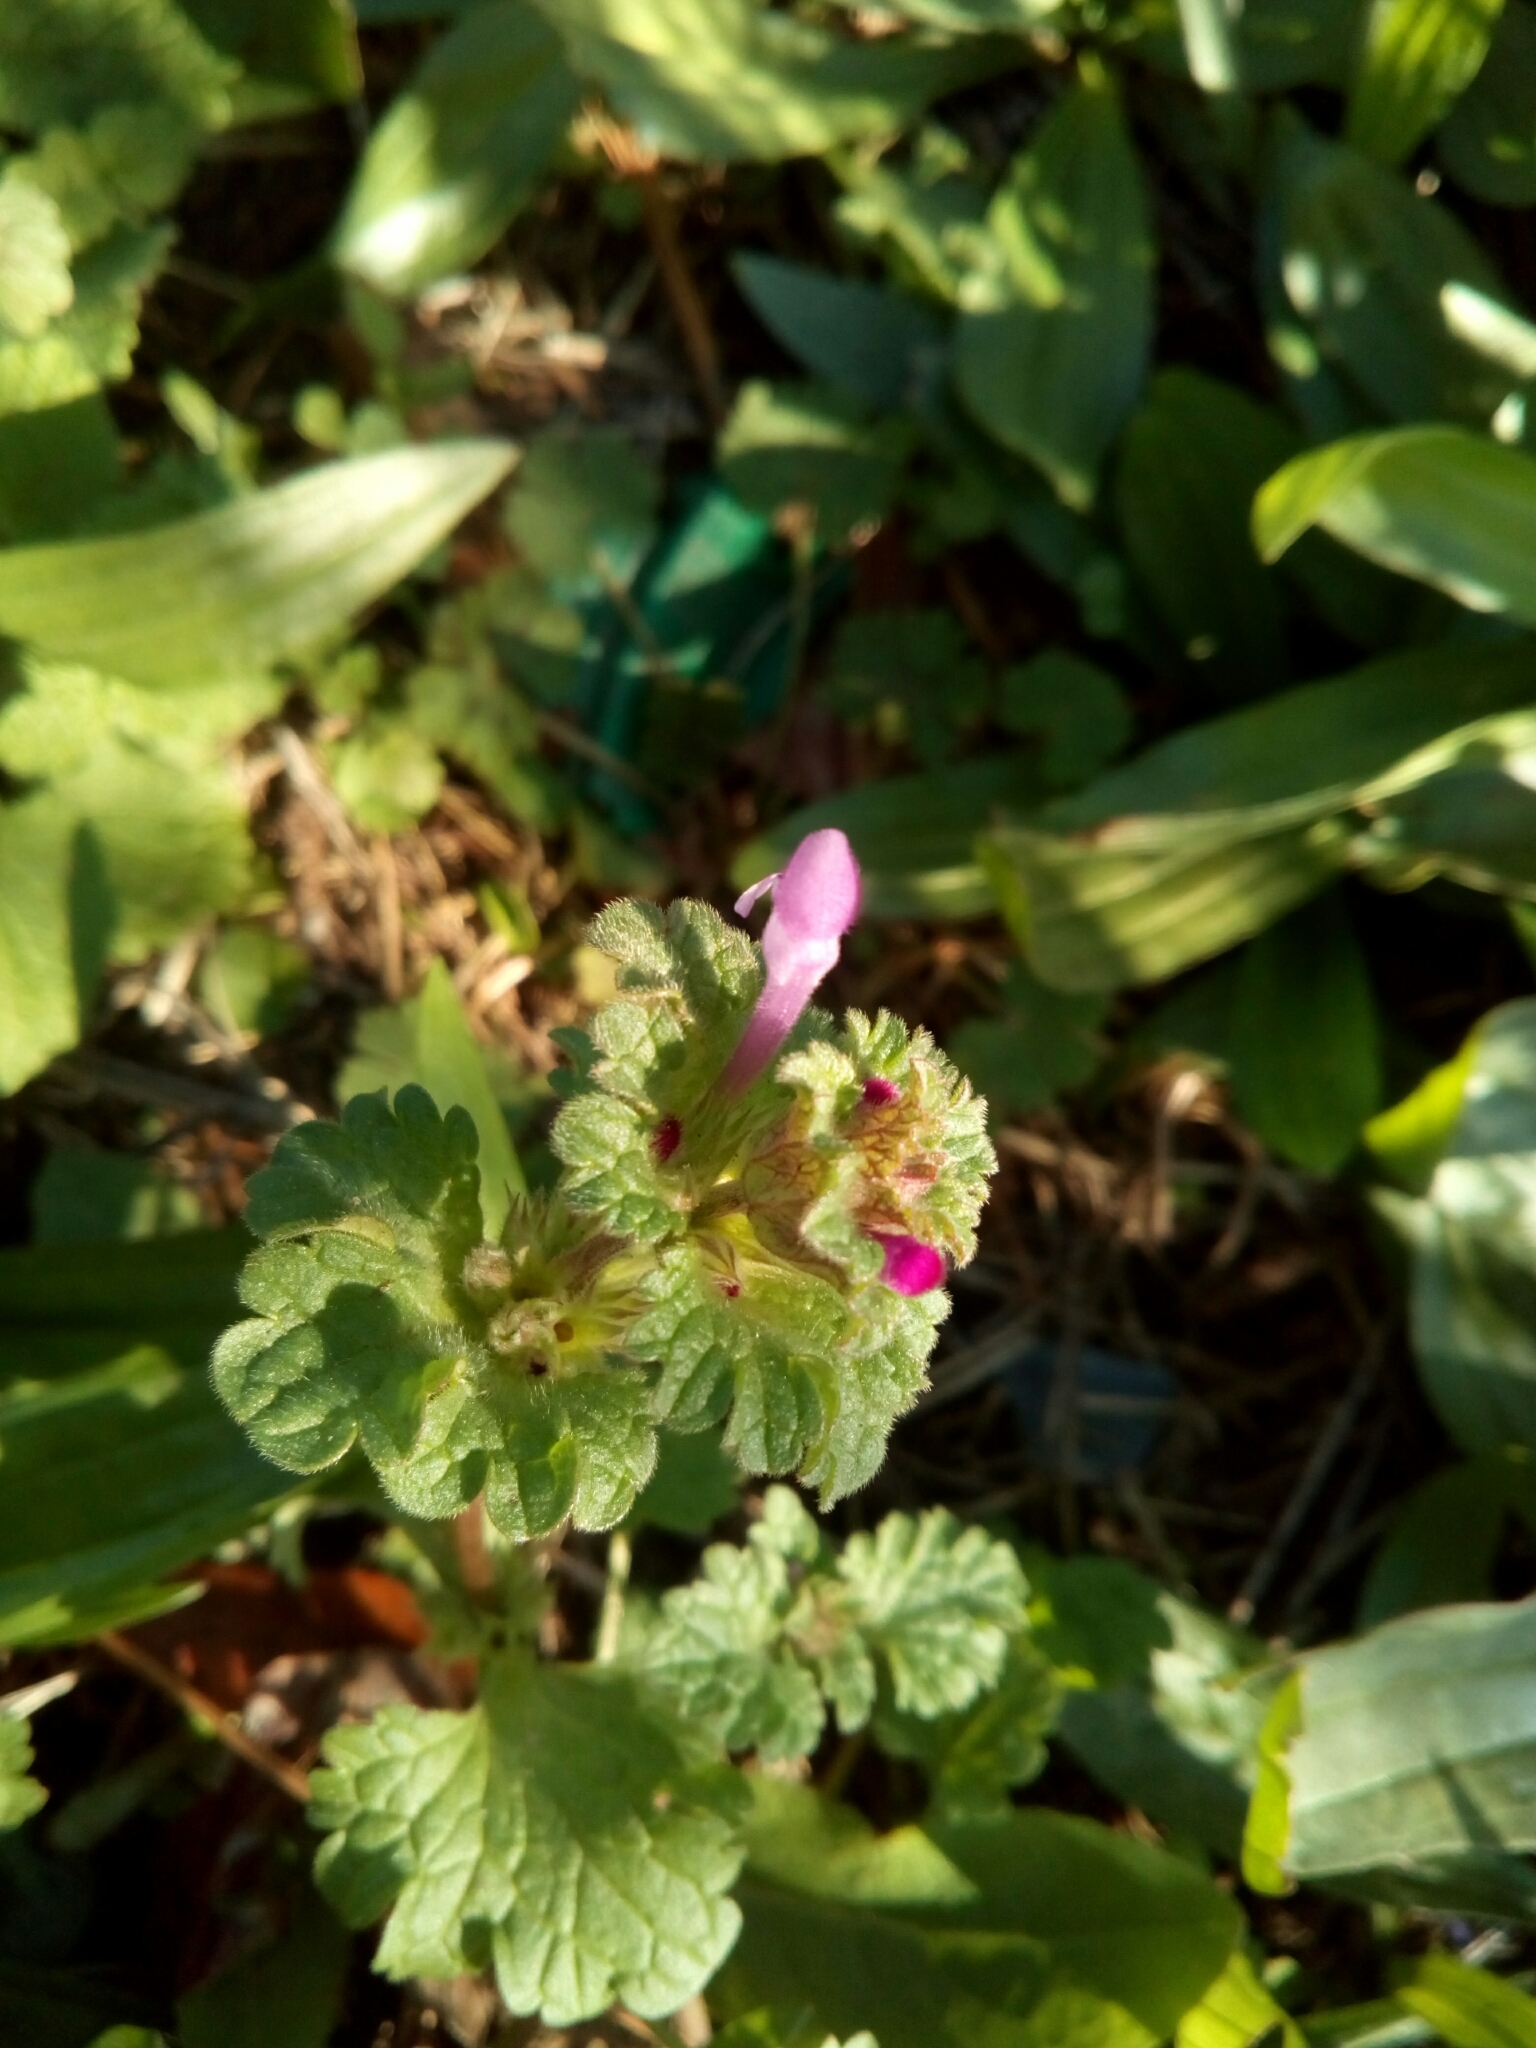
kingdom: Plantae
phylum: Tracheophyta
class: Magnoliopsida
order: Lamiales
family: Lamiaceae
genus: Lamium
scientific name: Lamium amplexicaule
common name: Henbit dead-nettle
